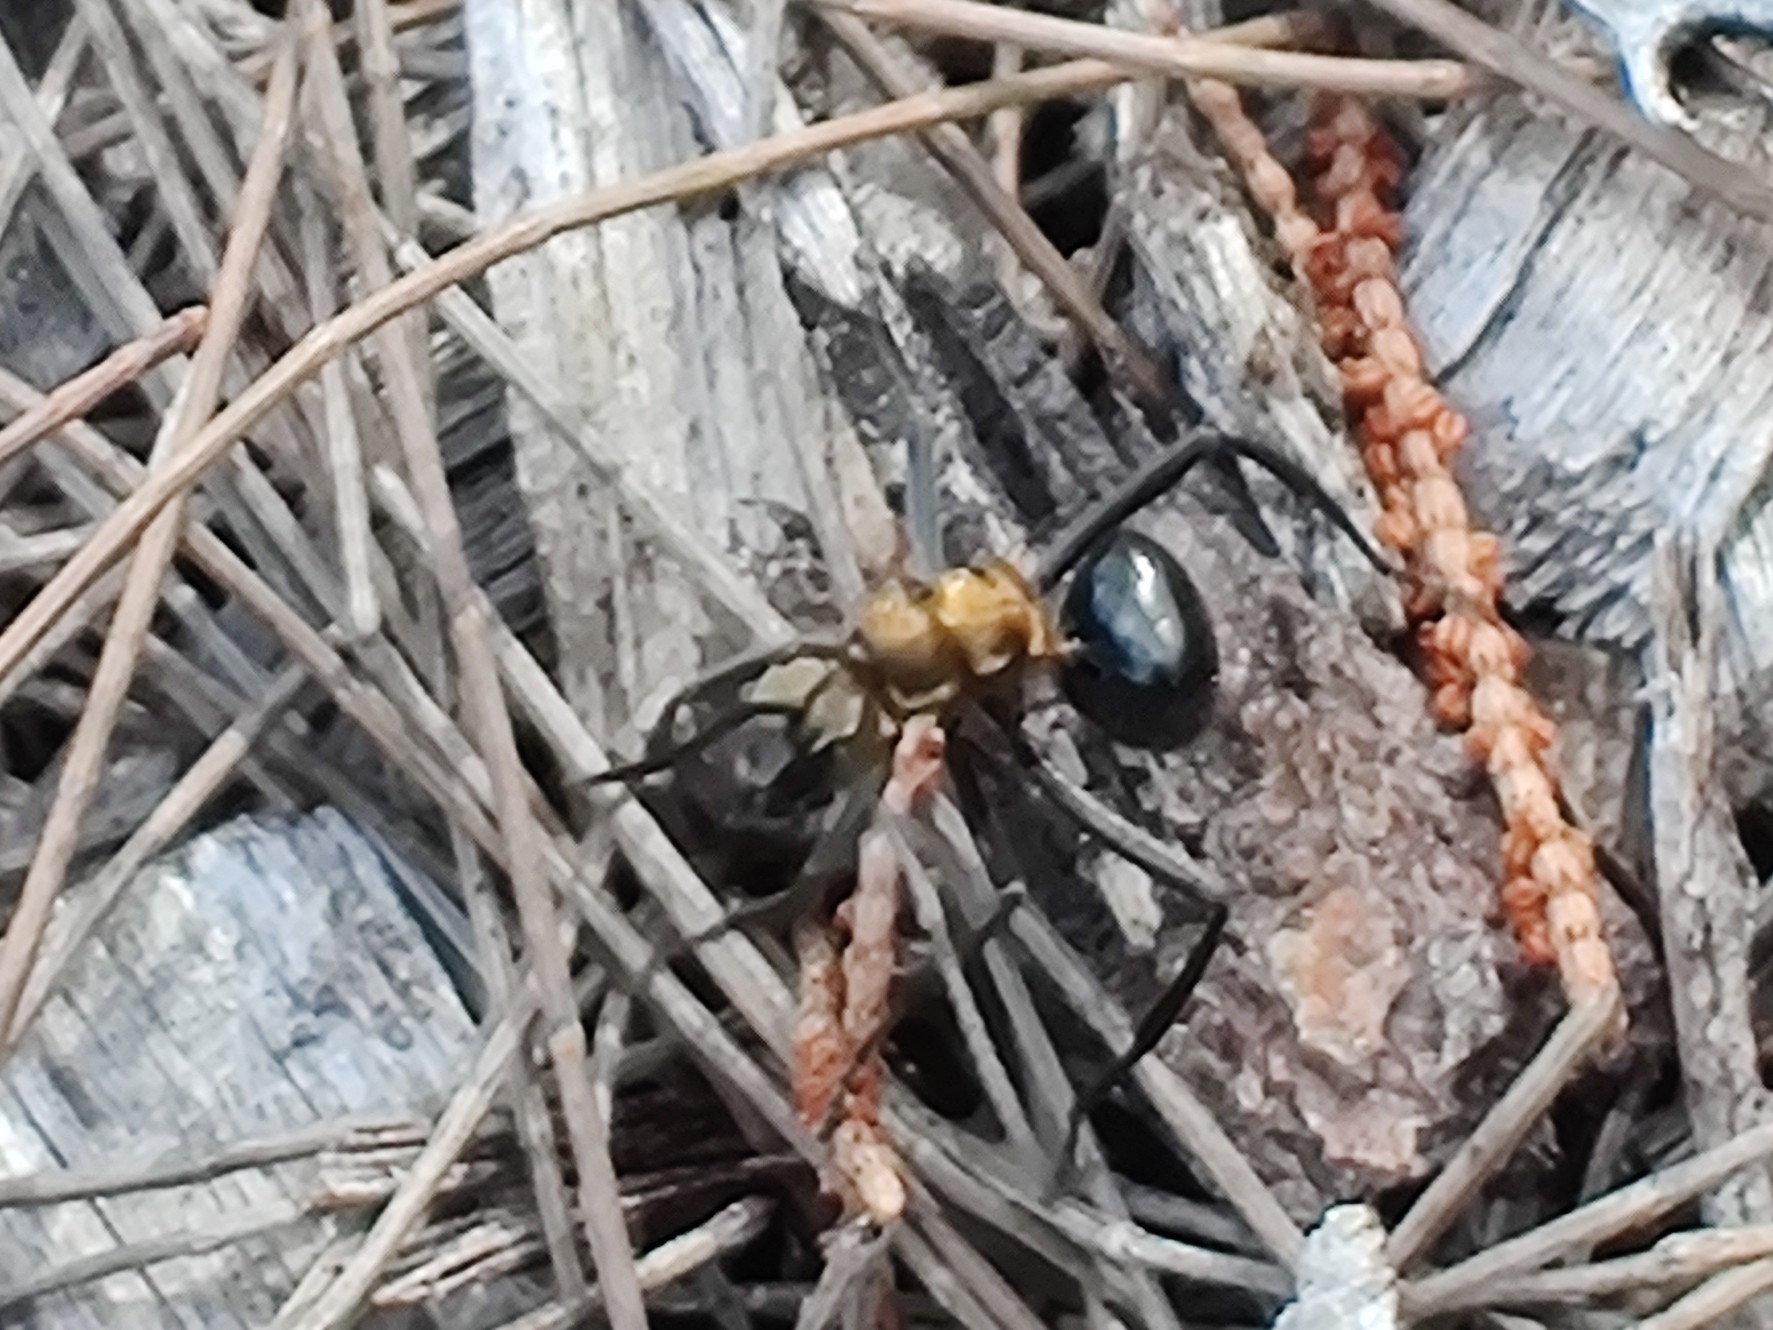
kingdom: Animalia
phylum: Arthropoda
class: Insecta
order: Hymenoptera
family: Formicidae
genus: Polyrhachis
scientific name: Polyrhachis semiaurata
